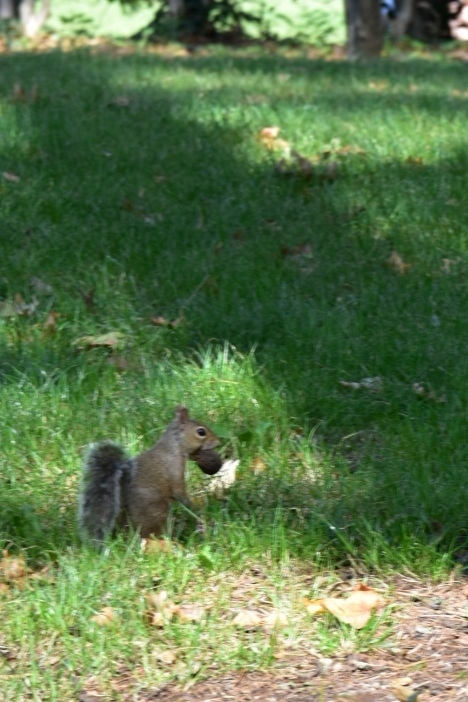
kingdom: Animalia
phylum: Chordata
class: Mammalia
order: Rodentia
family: Sciuridae
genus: Sciurus
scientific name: Sciurus carolinensis
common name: Eastern gray squirrel
